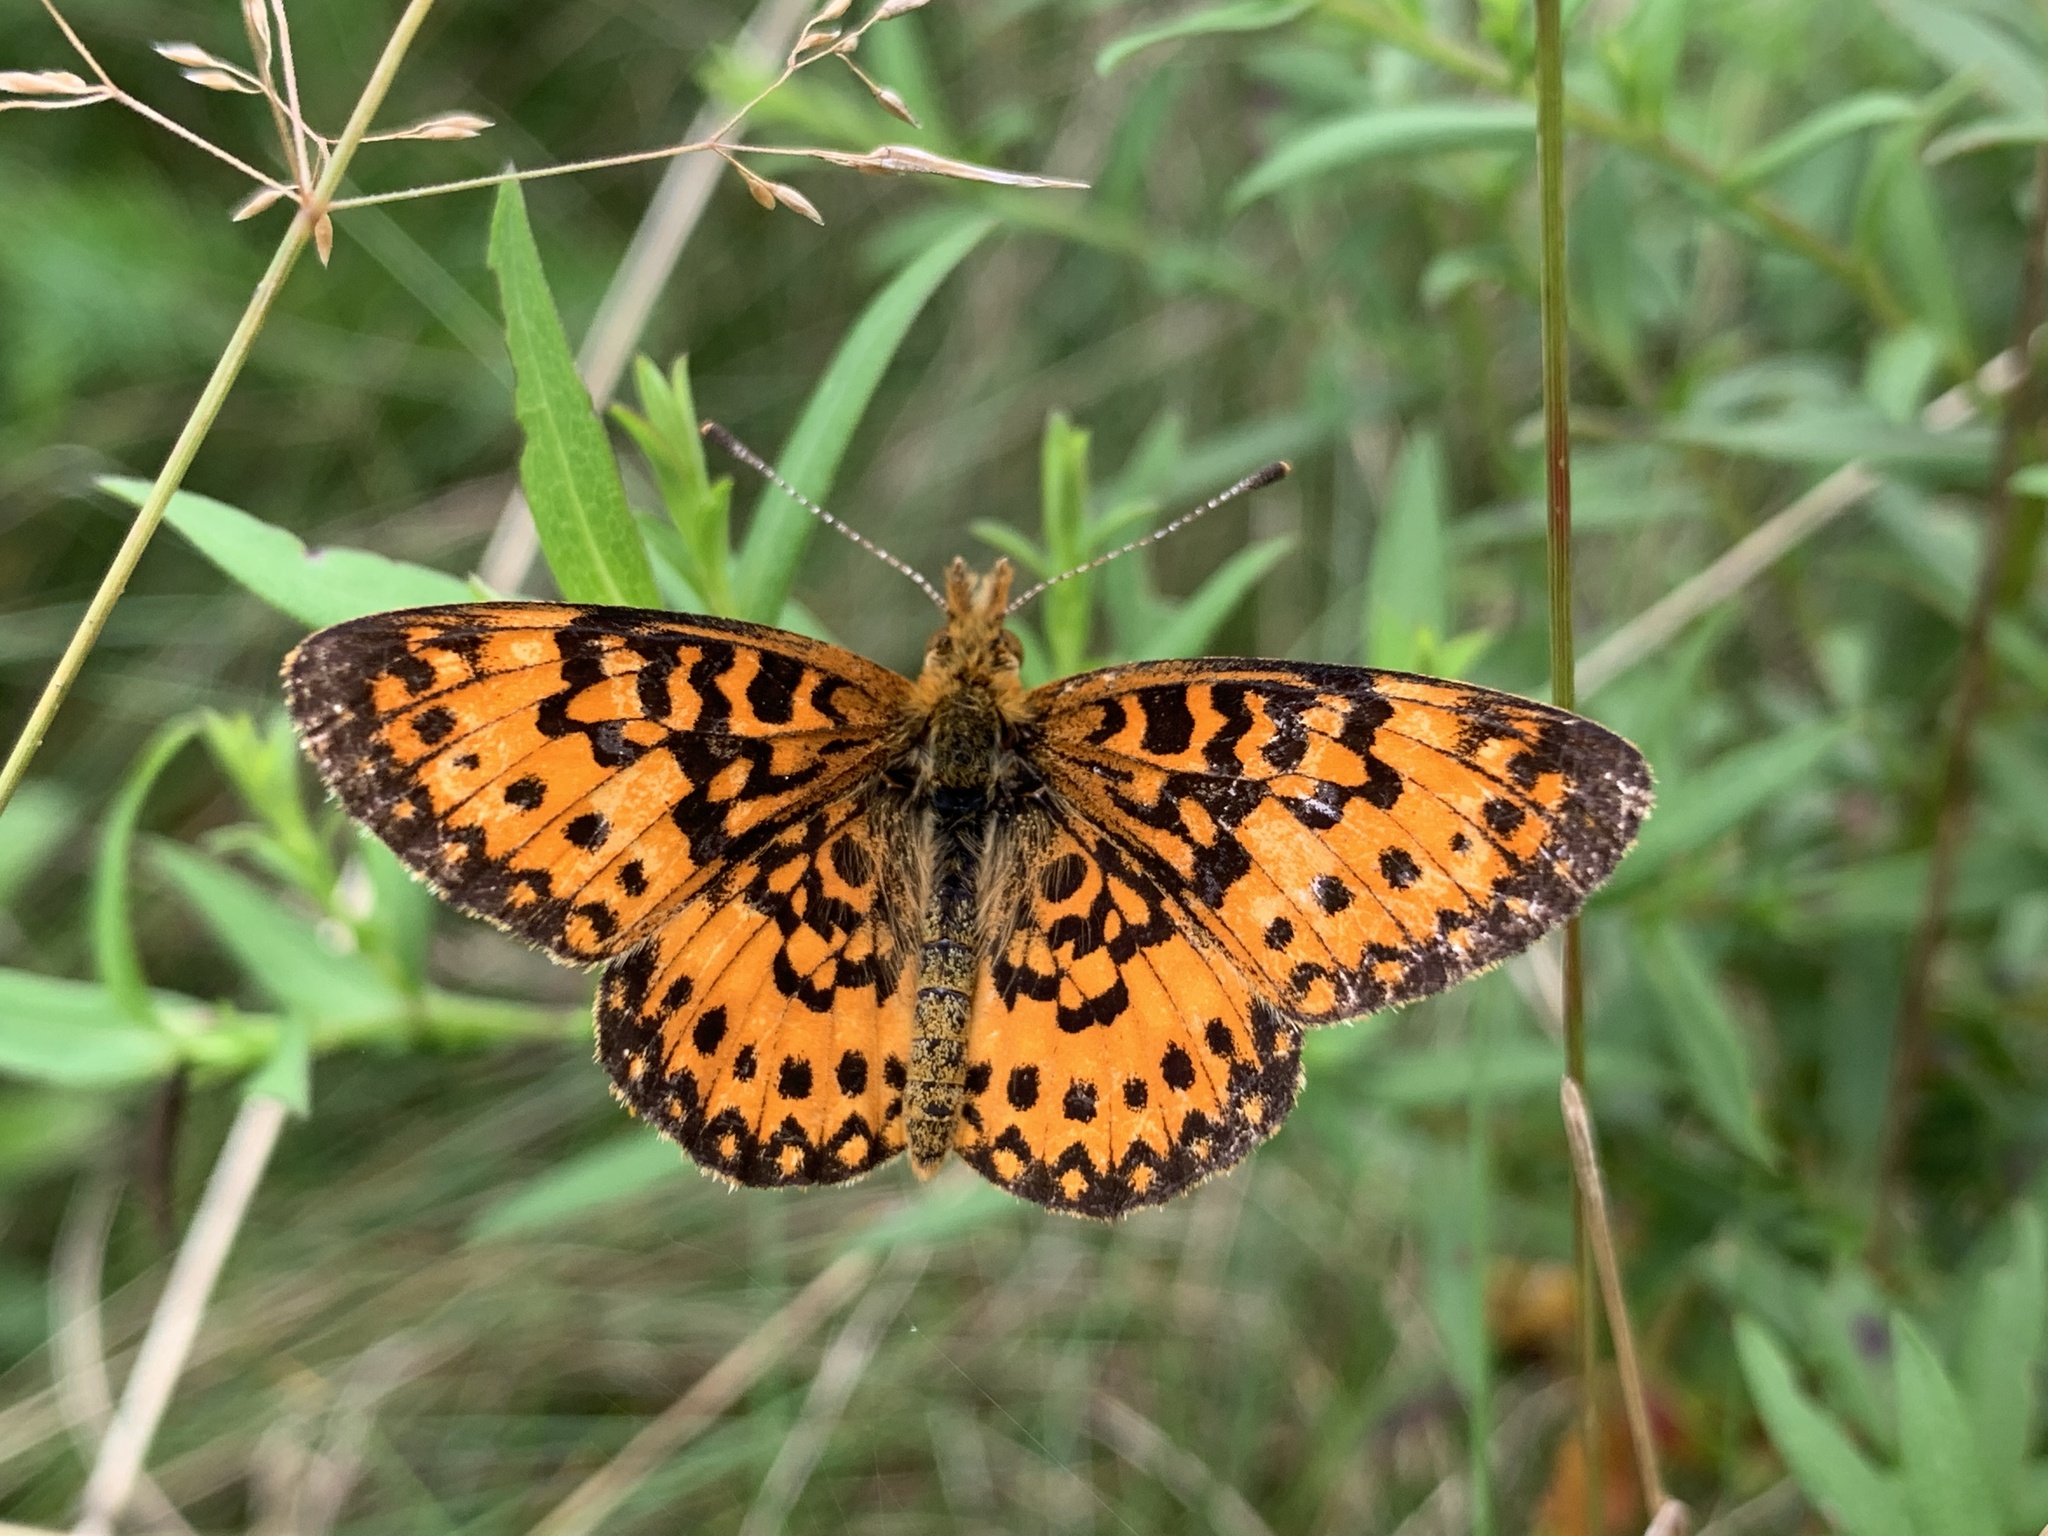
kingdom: Animalia
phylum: Arthropoda
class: Insecta
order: Lepidoptera
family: Nymphalidae
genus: Boloria
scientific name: Boloria
